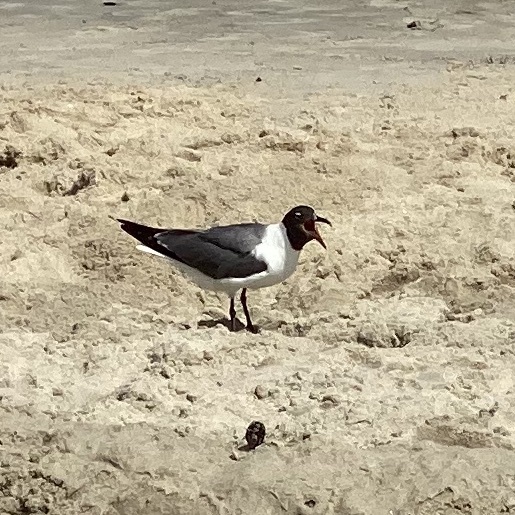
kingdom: Animalia
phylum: Chordata
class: Aves
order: Charadriiformes
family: Laridae
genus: Leucophaeus
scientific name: Leucophaeus atricilla
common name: Laughing gull
